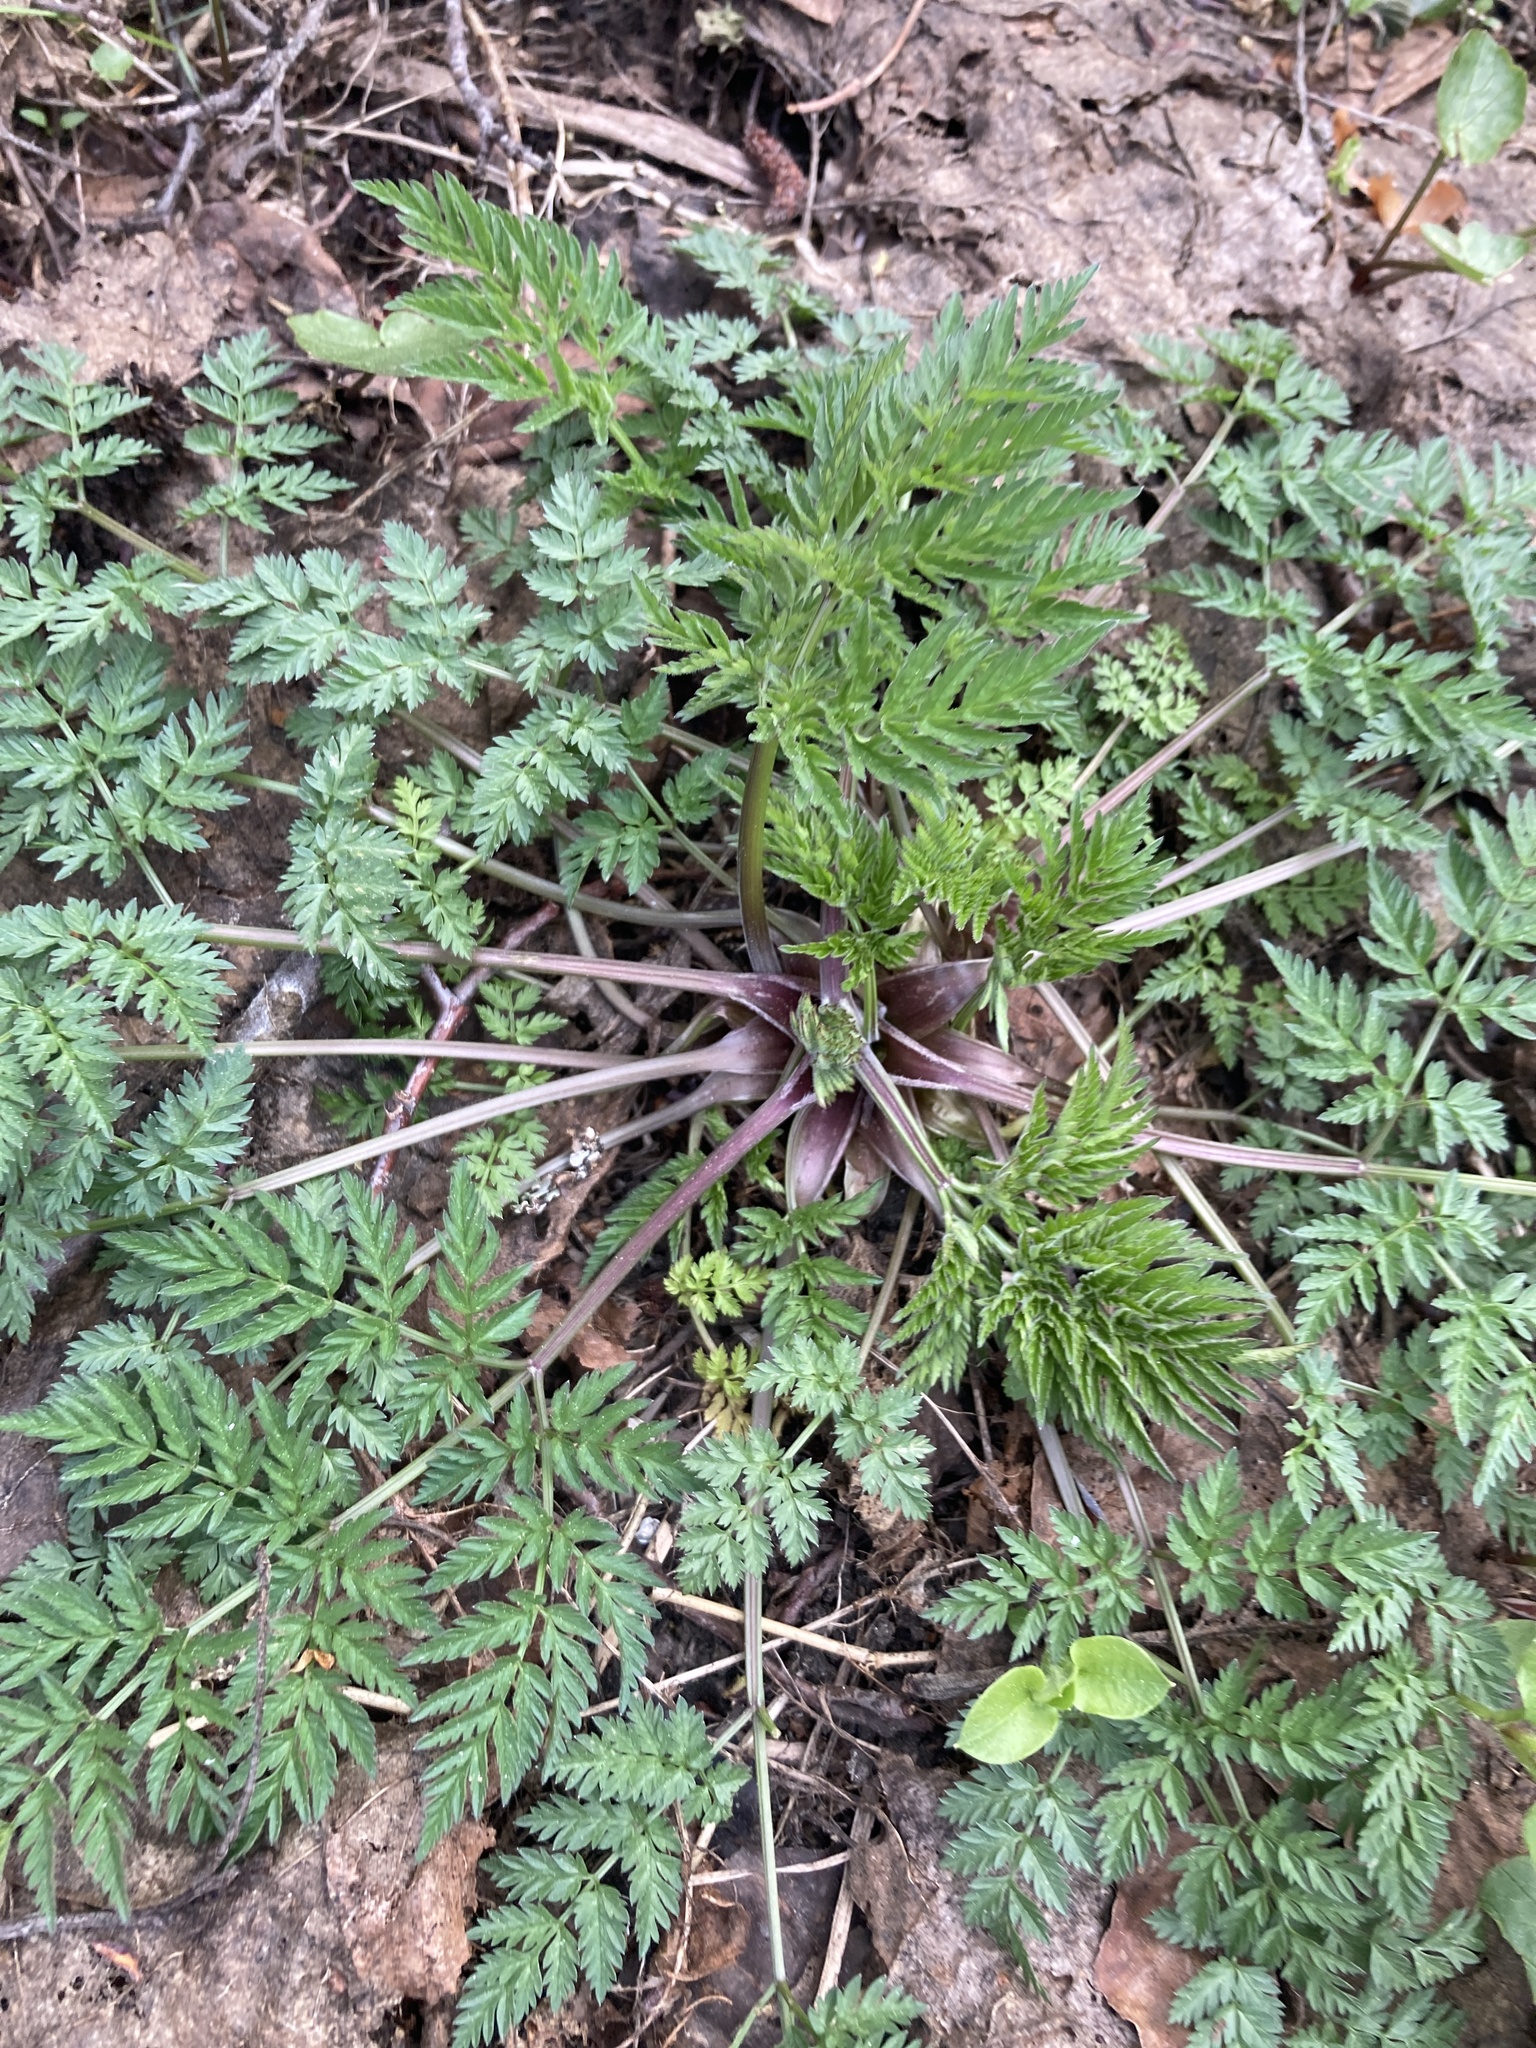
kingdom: Plantae
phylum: Tracheophyta
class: Magnoliopsida
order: Apiales
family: Apiaceae
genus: Anthriscus
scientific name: Anthriscus sylvestris
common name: Cow parsley
